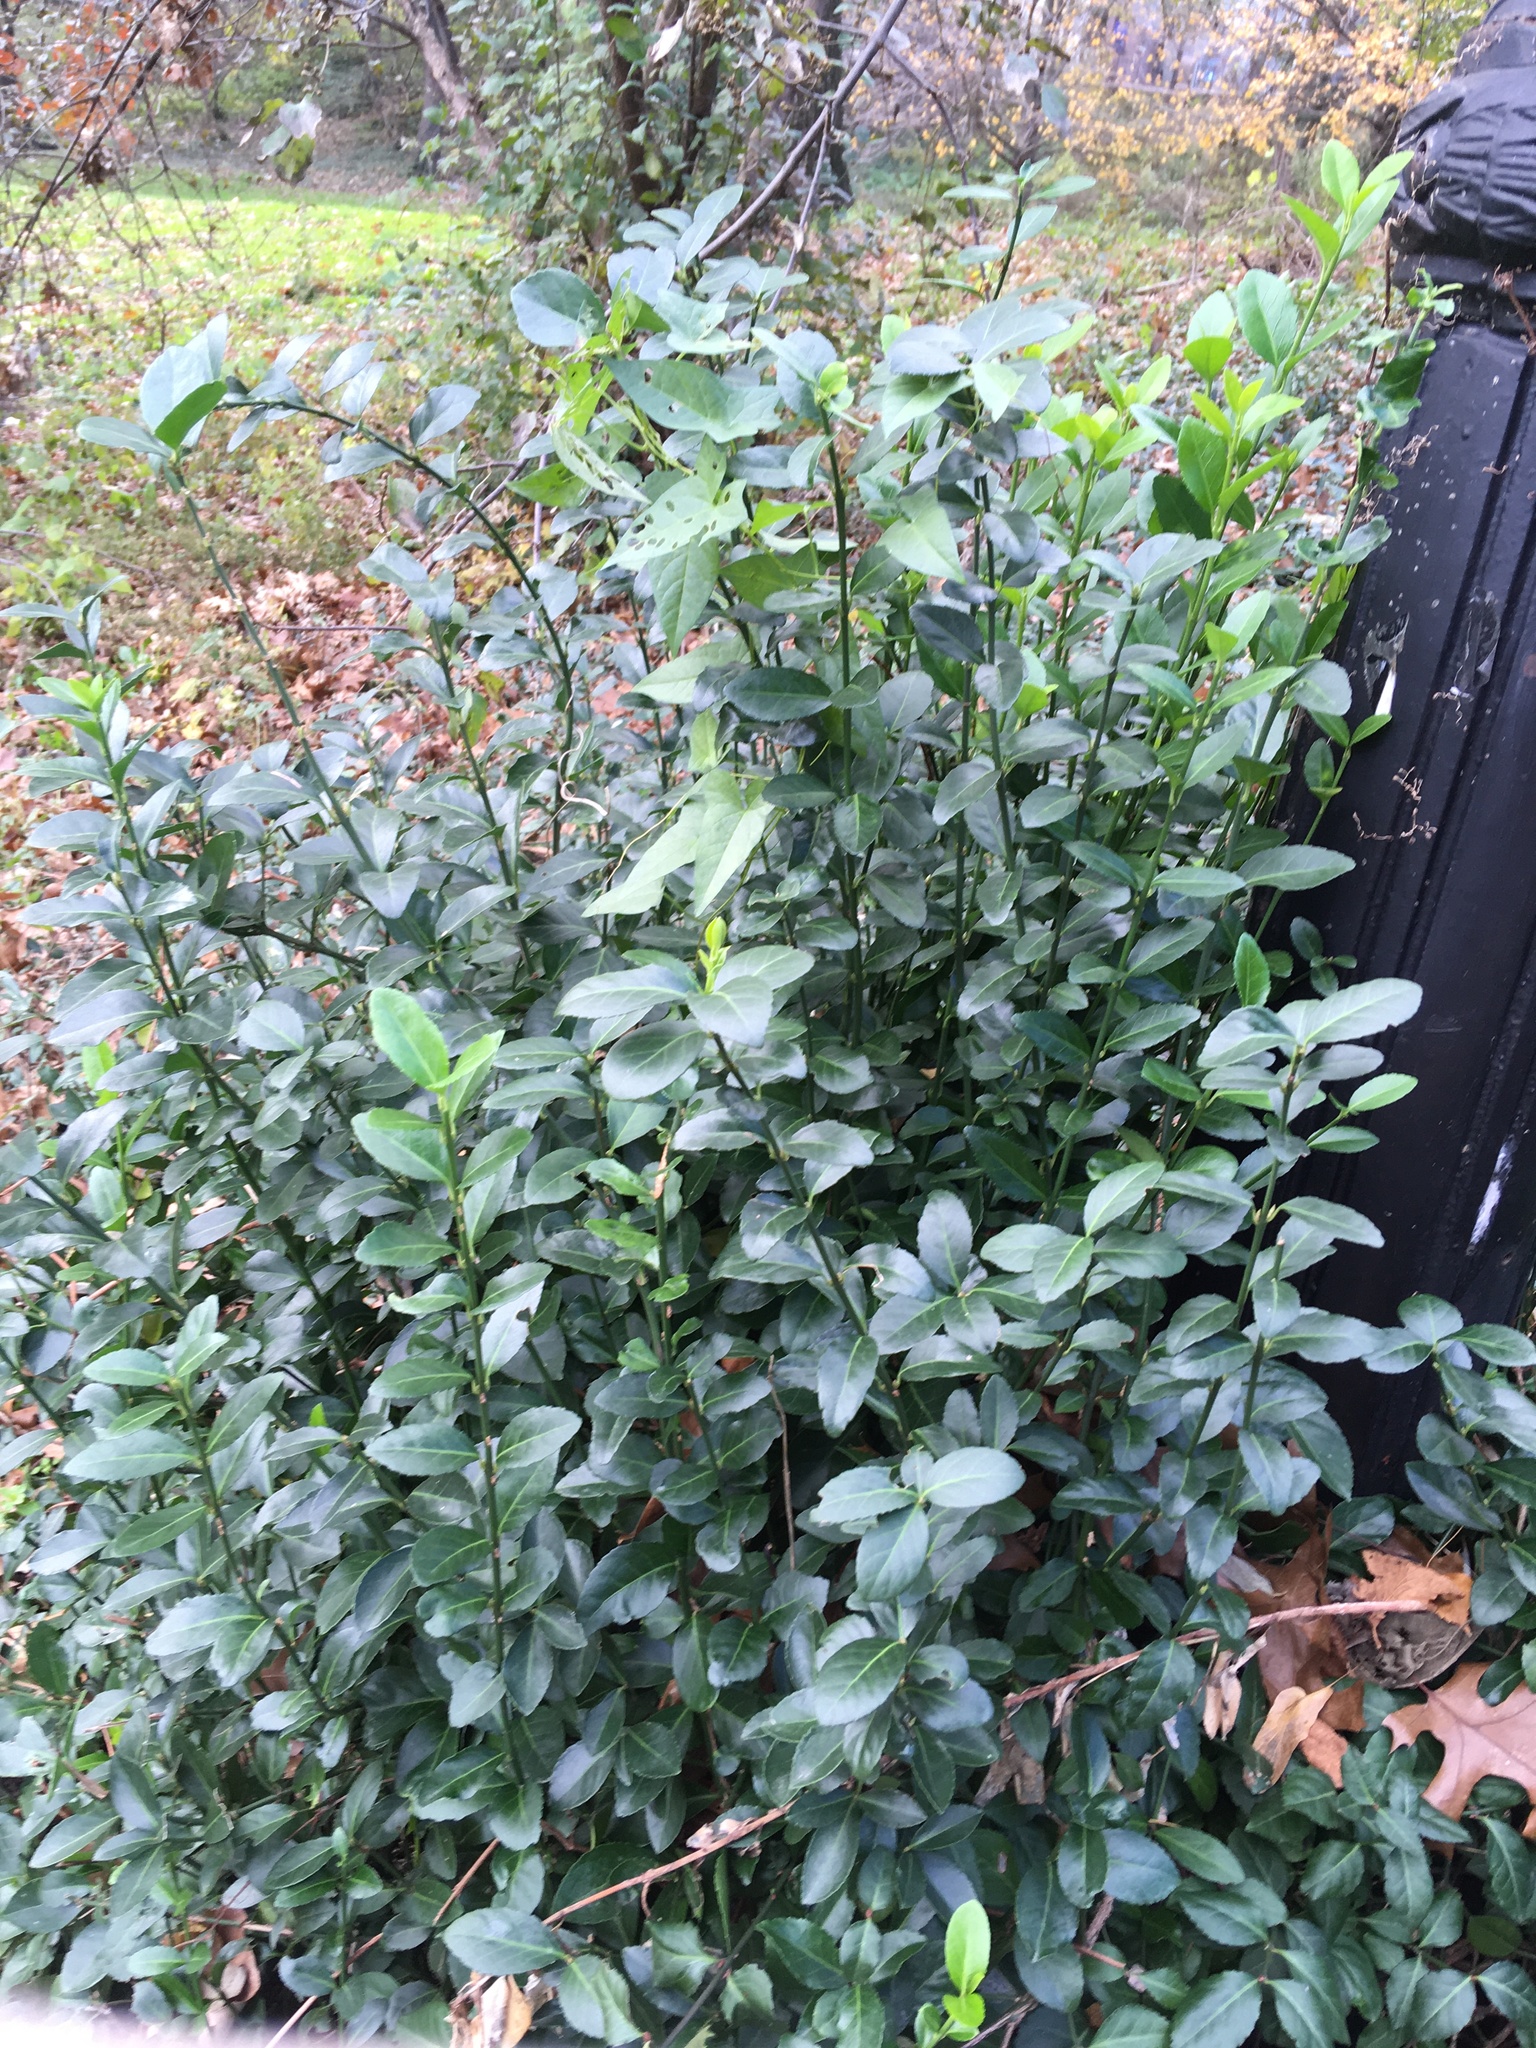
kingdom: Plantae
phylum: Tracheophyta
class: Magnoliopsida
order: Celastrales
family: Celastraceae
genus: Euonymus
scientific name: Euonymus fortunei
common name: Climbing euonymus
